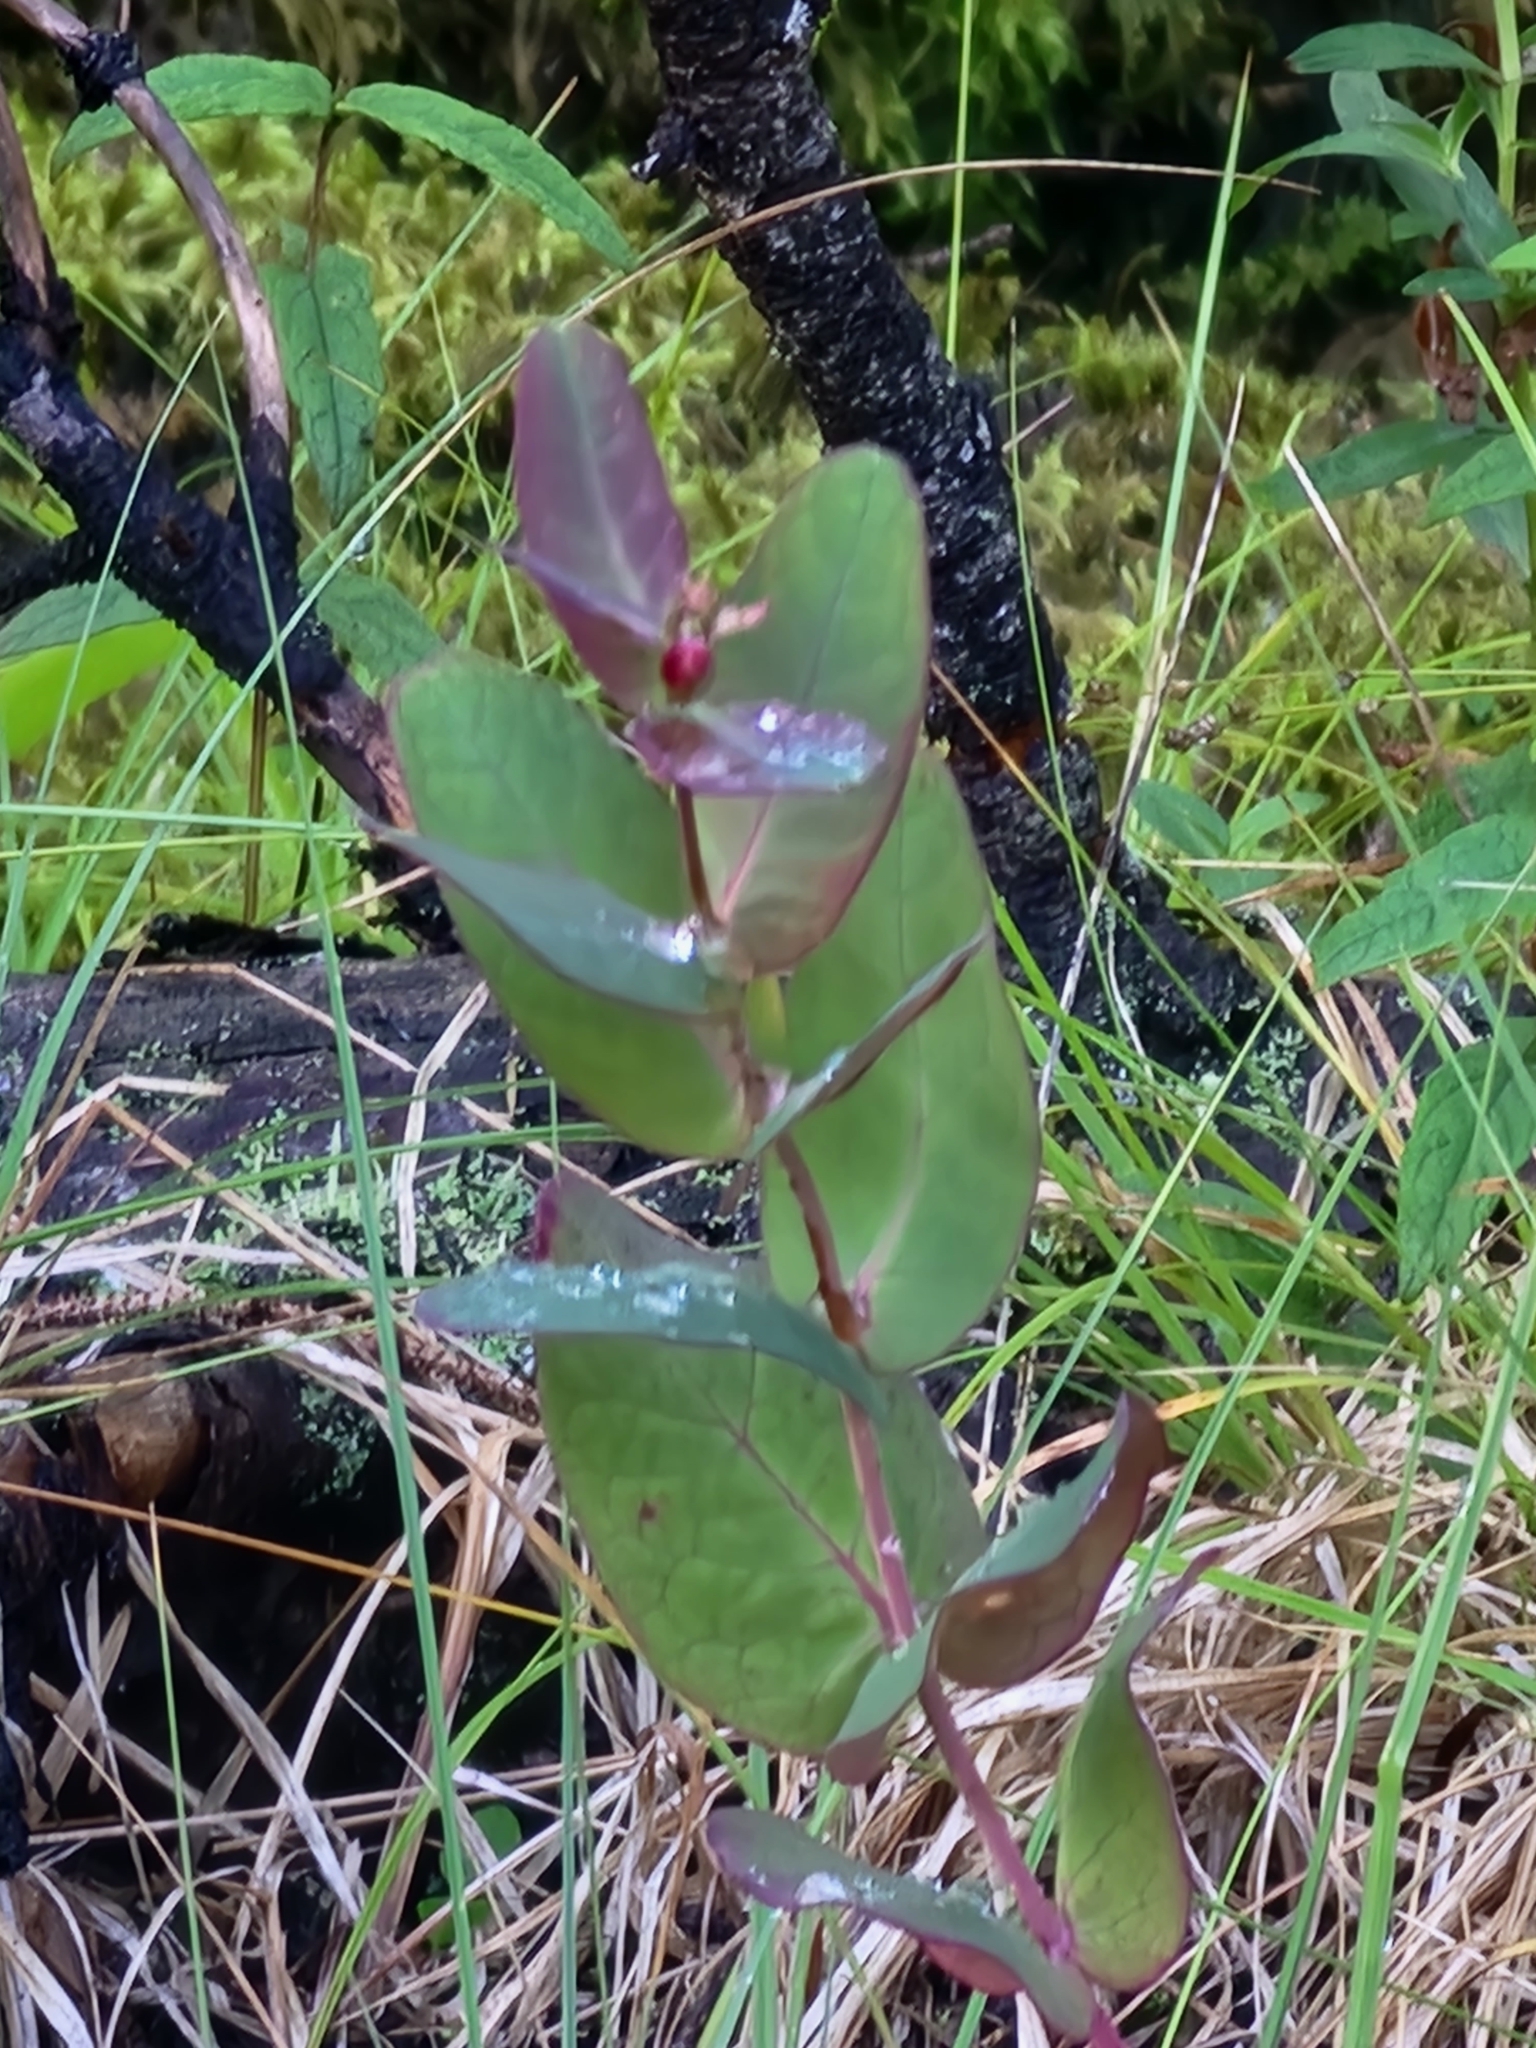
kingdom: Plantae
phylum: Tracheophyta
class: Magnoliopsida
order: Malpighiales
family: Hypericaceae
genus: Triadenum
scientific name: Triadenum fraseri
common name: Fraser's marsh st. johnswort
